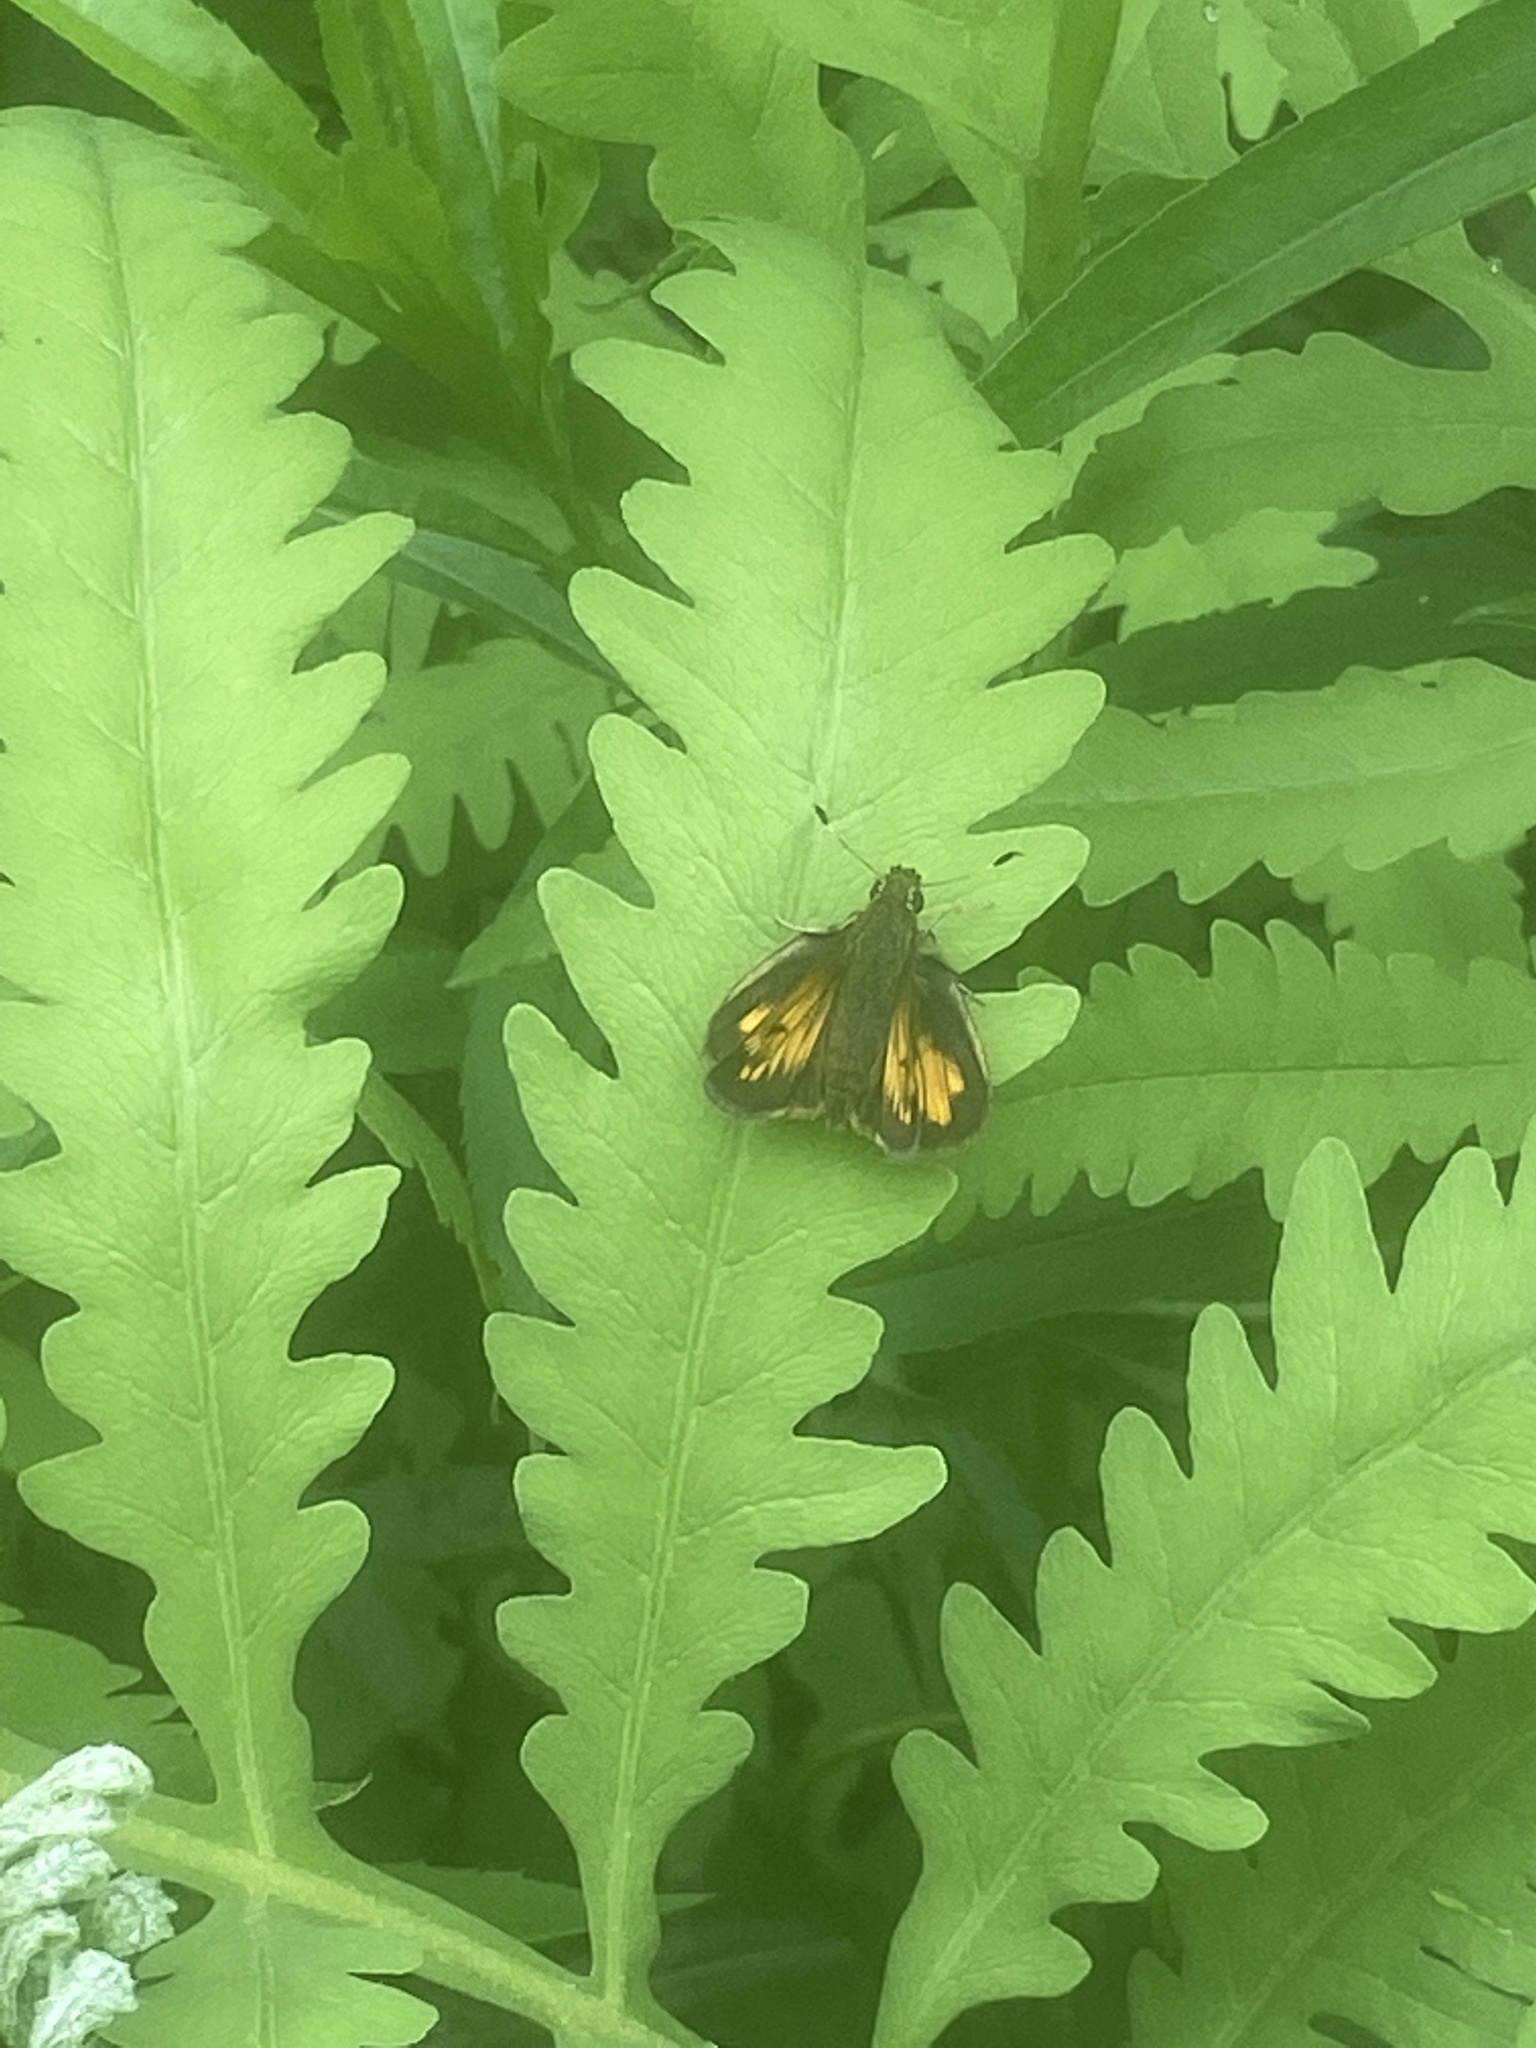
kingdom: Animalia
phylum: Arthropoda
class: Insecta
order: Lepidoptera
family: Hesperiidae
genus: Lon
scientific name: Lon hobomok
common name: Hobomok skipper
